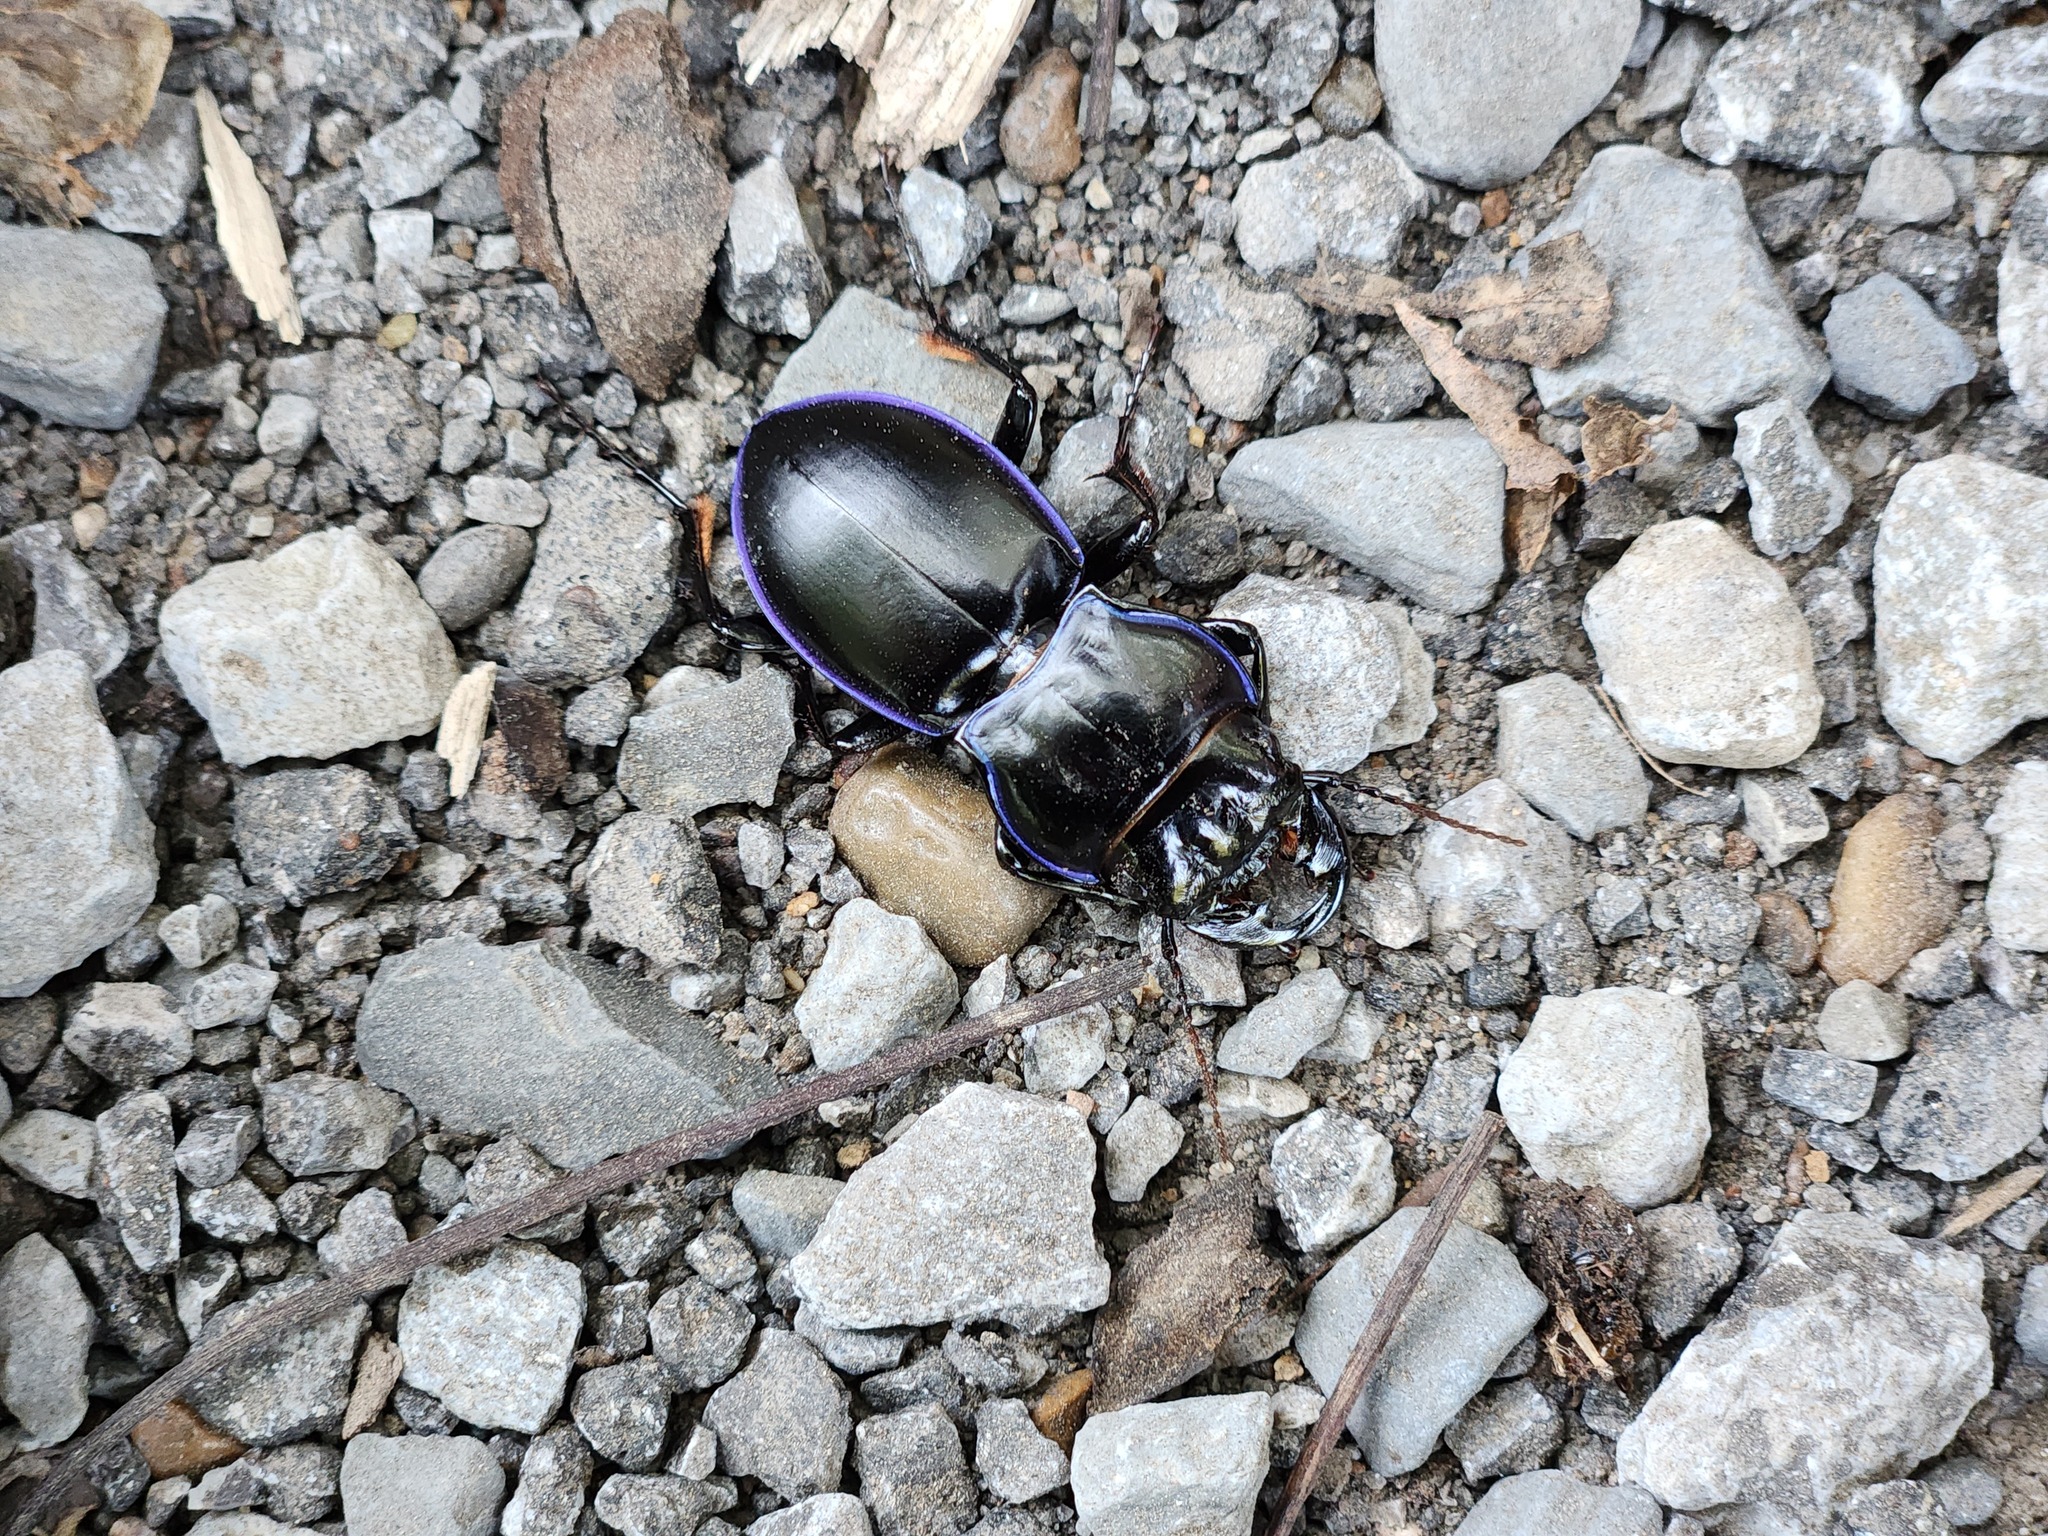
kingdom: Animalia
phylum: Arthropoda
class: Insecta
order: Coleoptera
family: Carabidae
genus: Pasimachus
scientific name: Pasimachus elongatus
